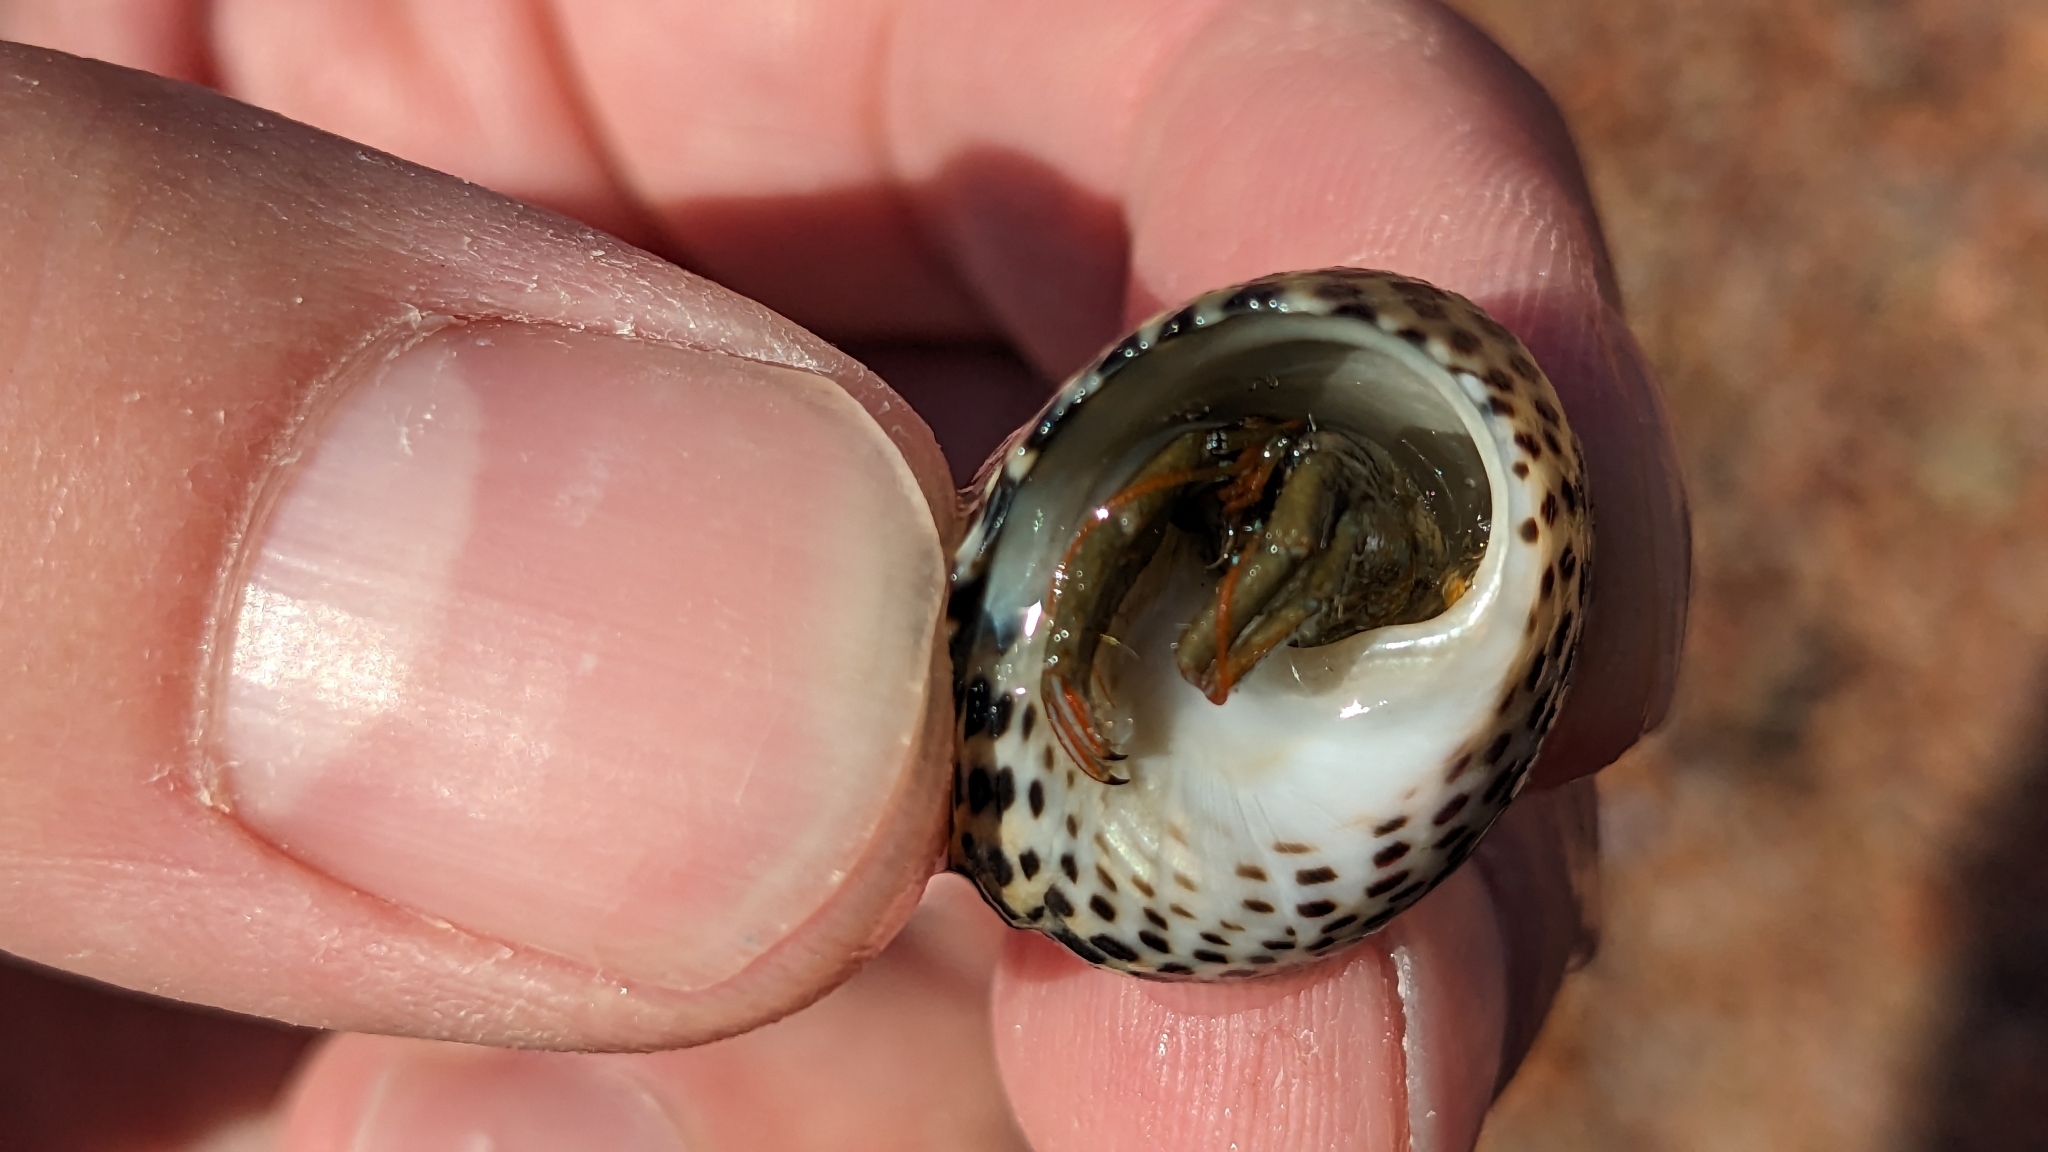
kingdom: Animalia
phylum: Arthropoda
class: Malacostraca
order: Decapoda
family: Diogenidae
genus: Clibanarius
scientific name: Clibanarius erythropus
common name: Hermit crab
